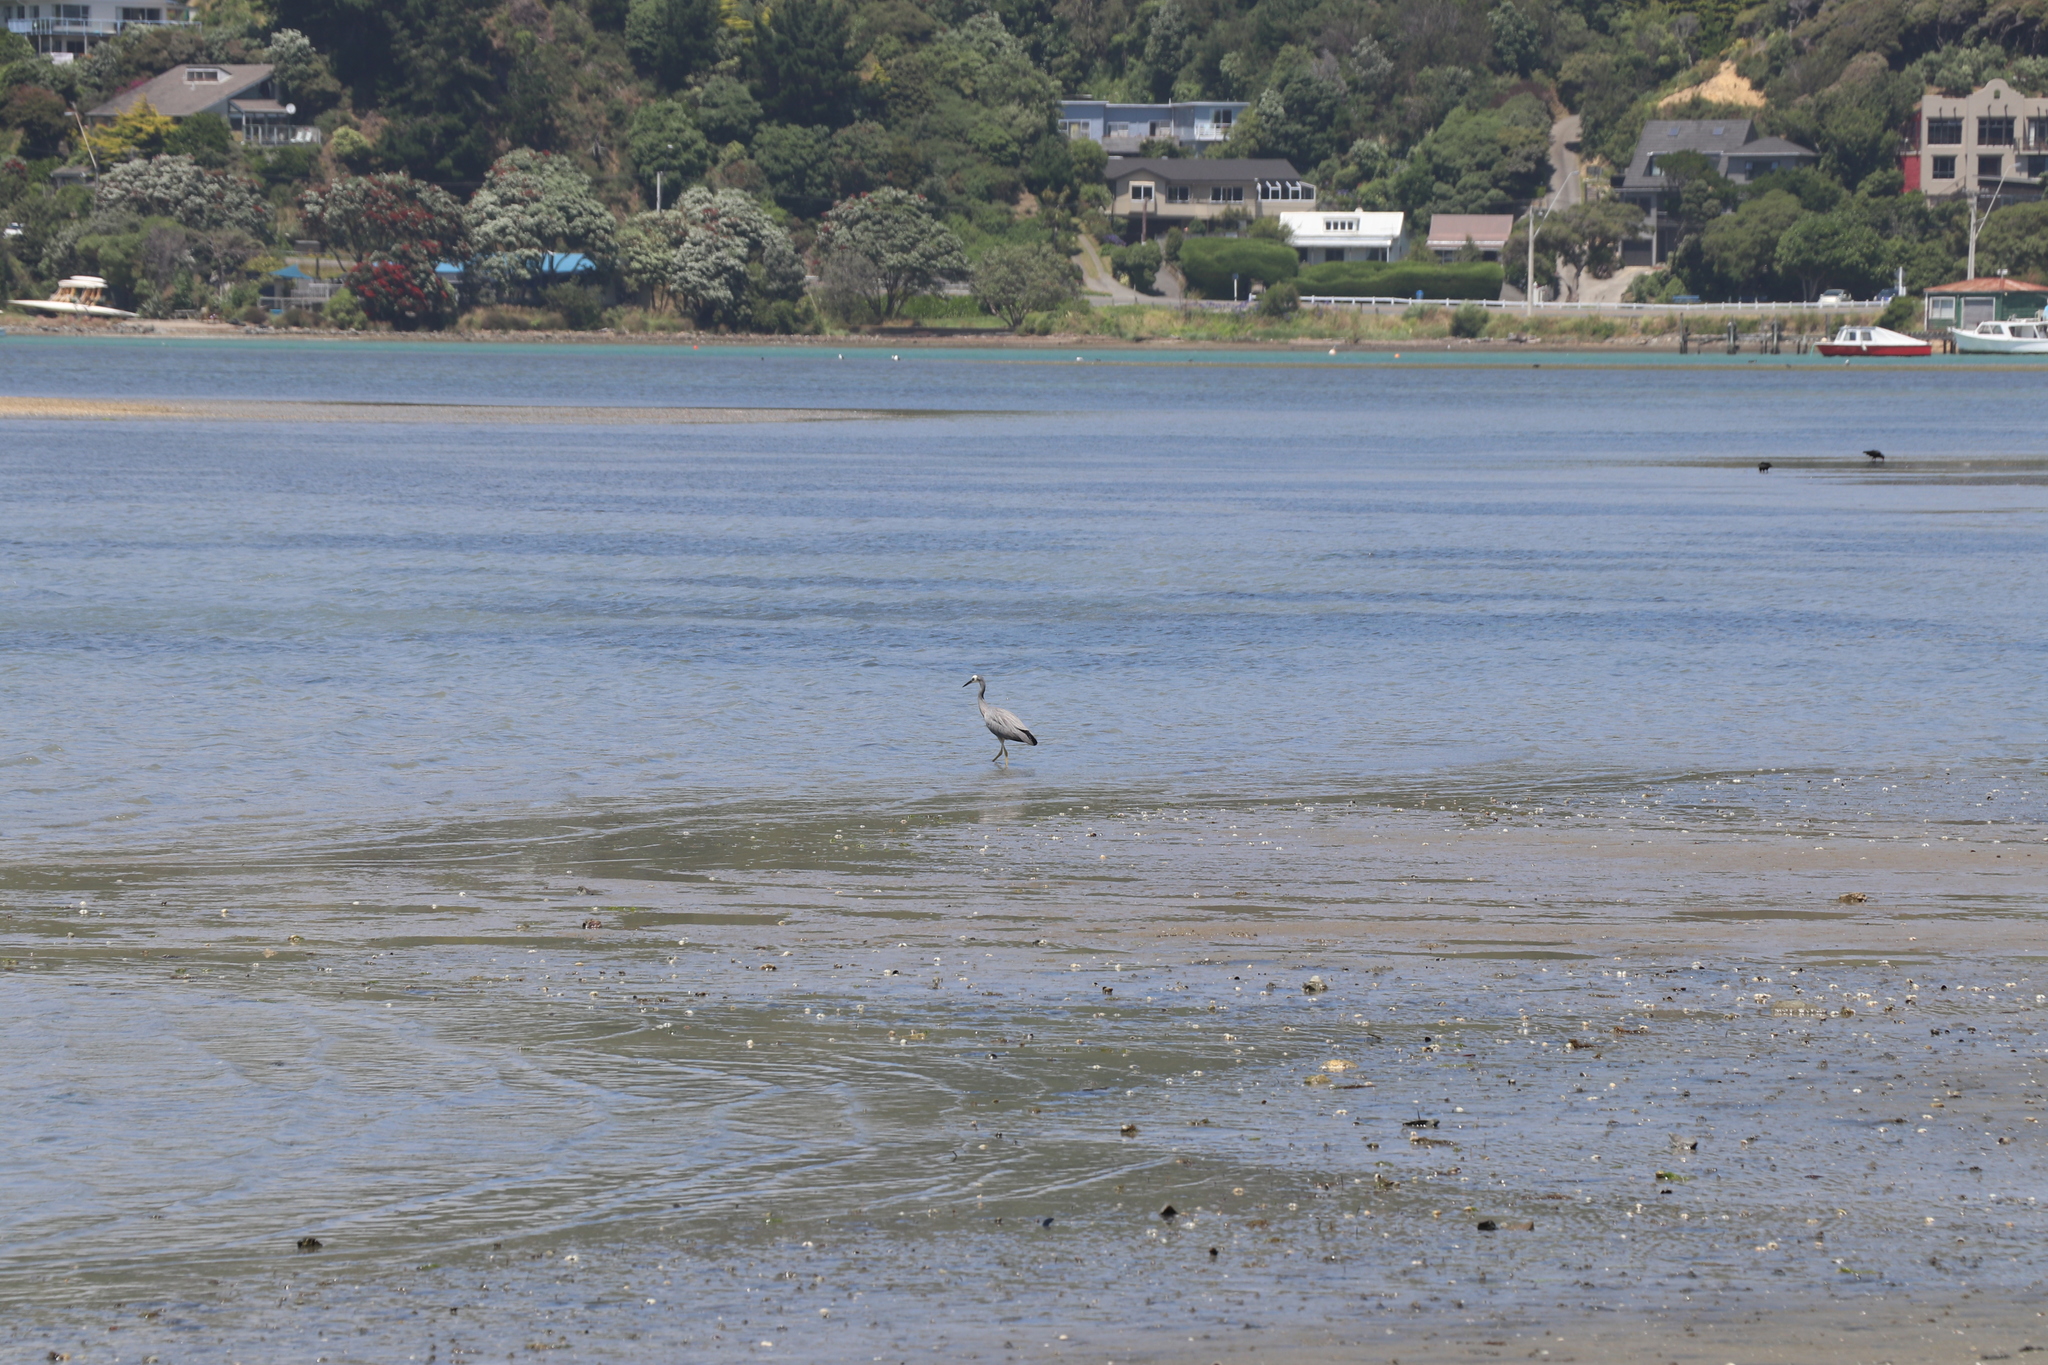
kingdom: Animalia
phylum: Chordata
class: Aves
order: Pelecaniformes
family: Ardeidae
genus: Egretta
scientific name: Egretta novaehollandiae
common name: White-faced heron
